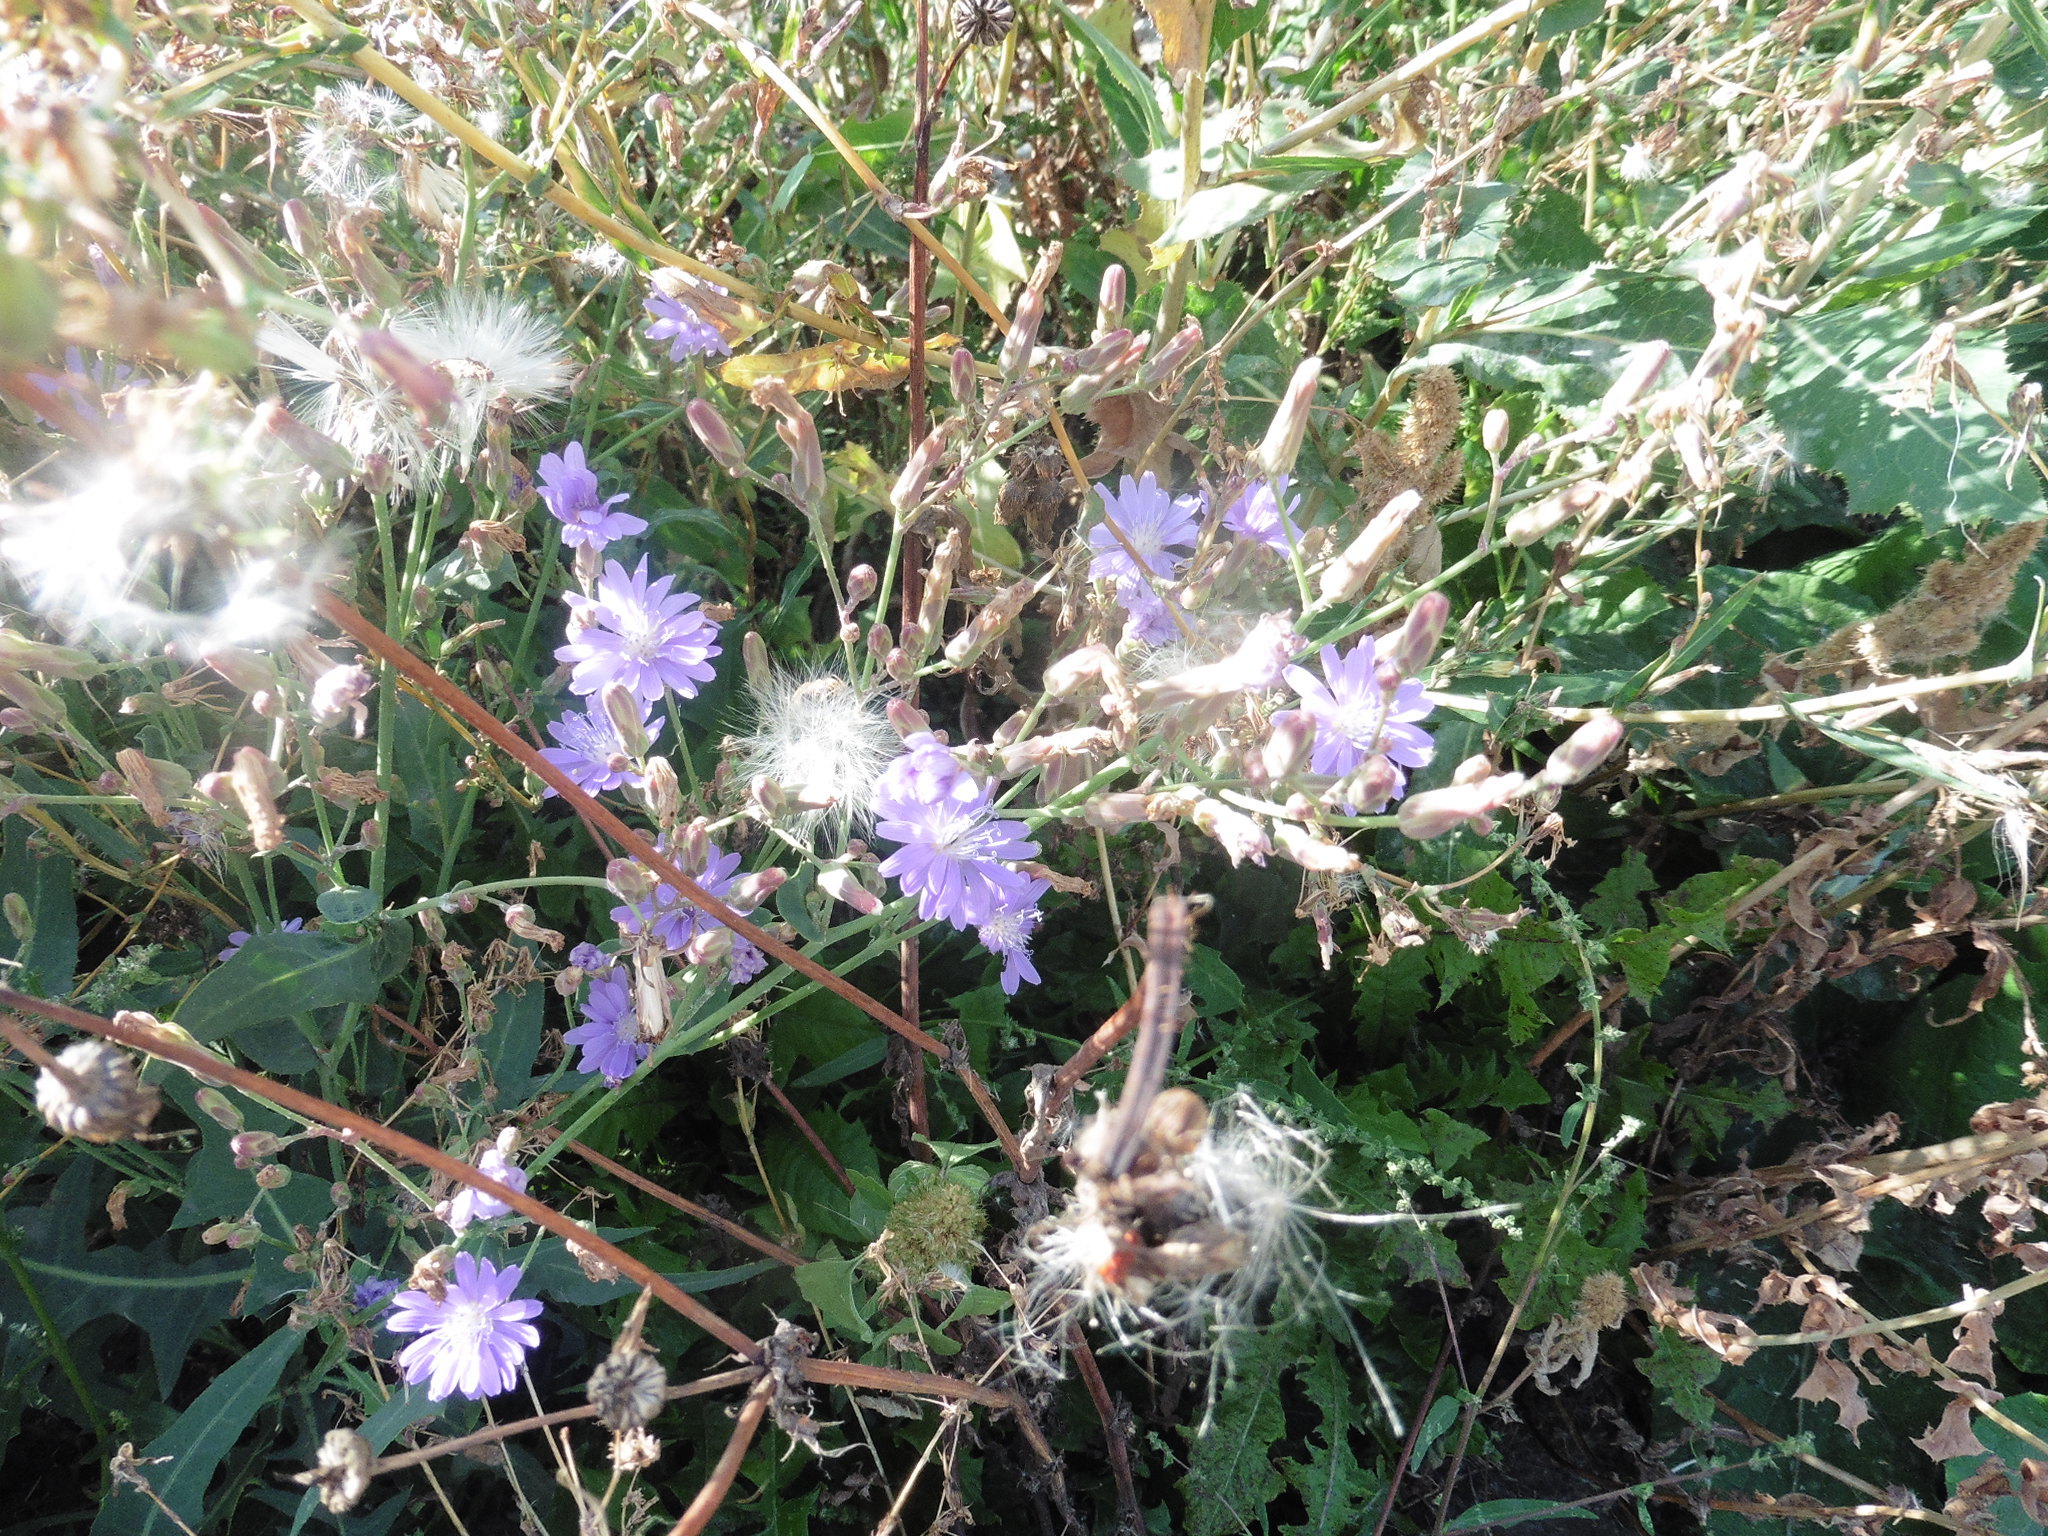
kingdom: Plantae
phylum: Tracheophyta
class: Magnoliopsida
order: Asterales
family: Asteraceae
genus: Lactuca
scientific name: Lactuca tatarica
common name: Blue lettuce
